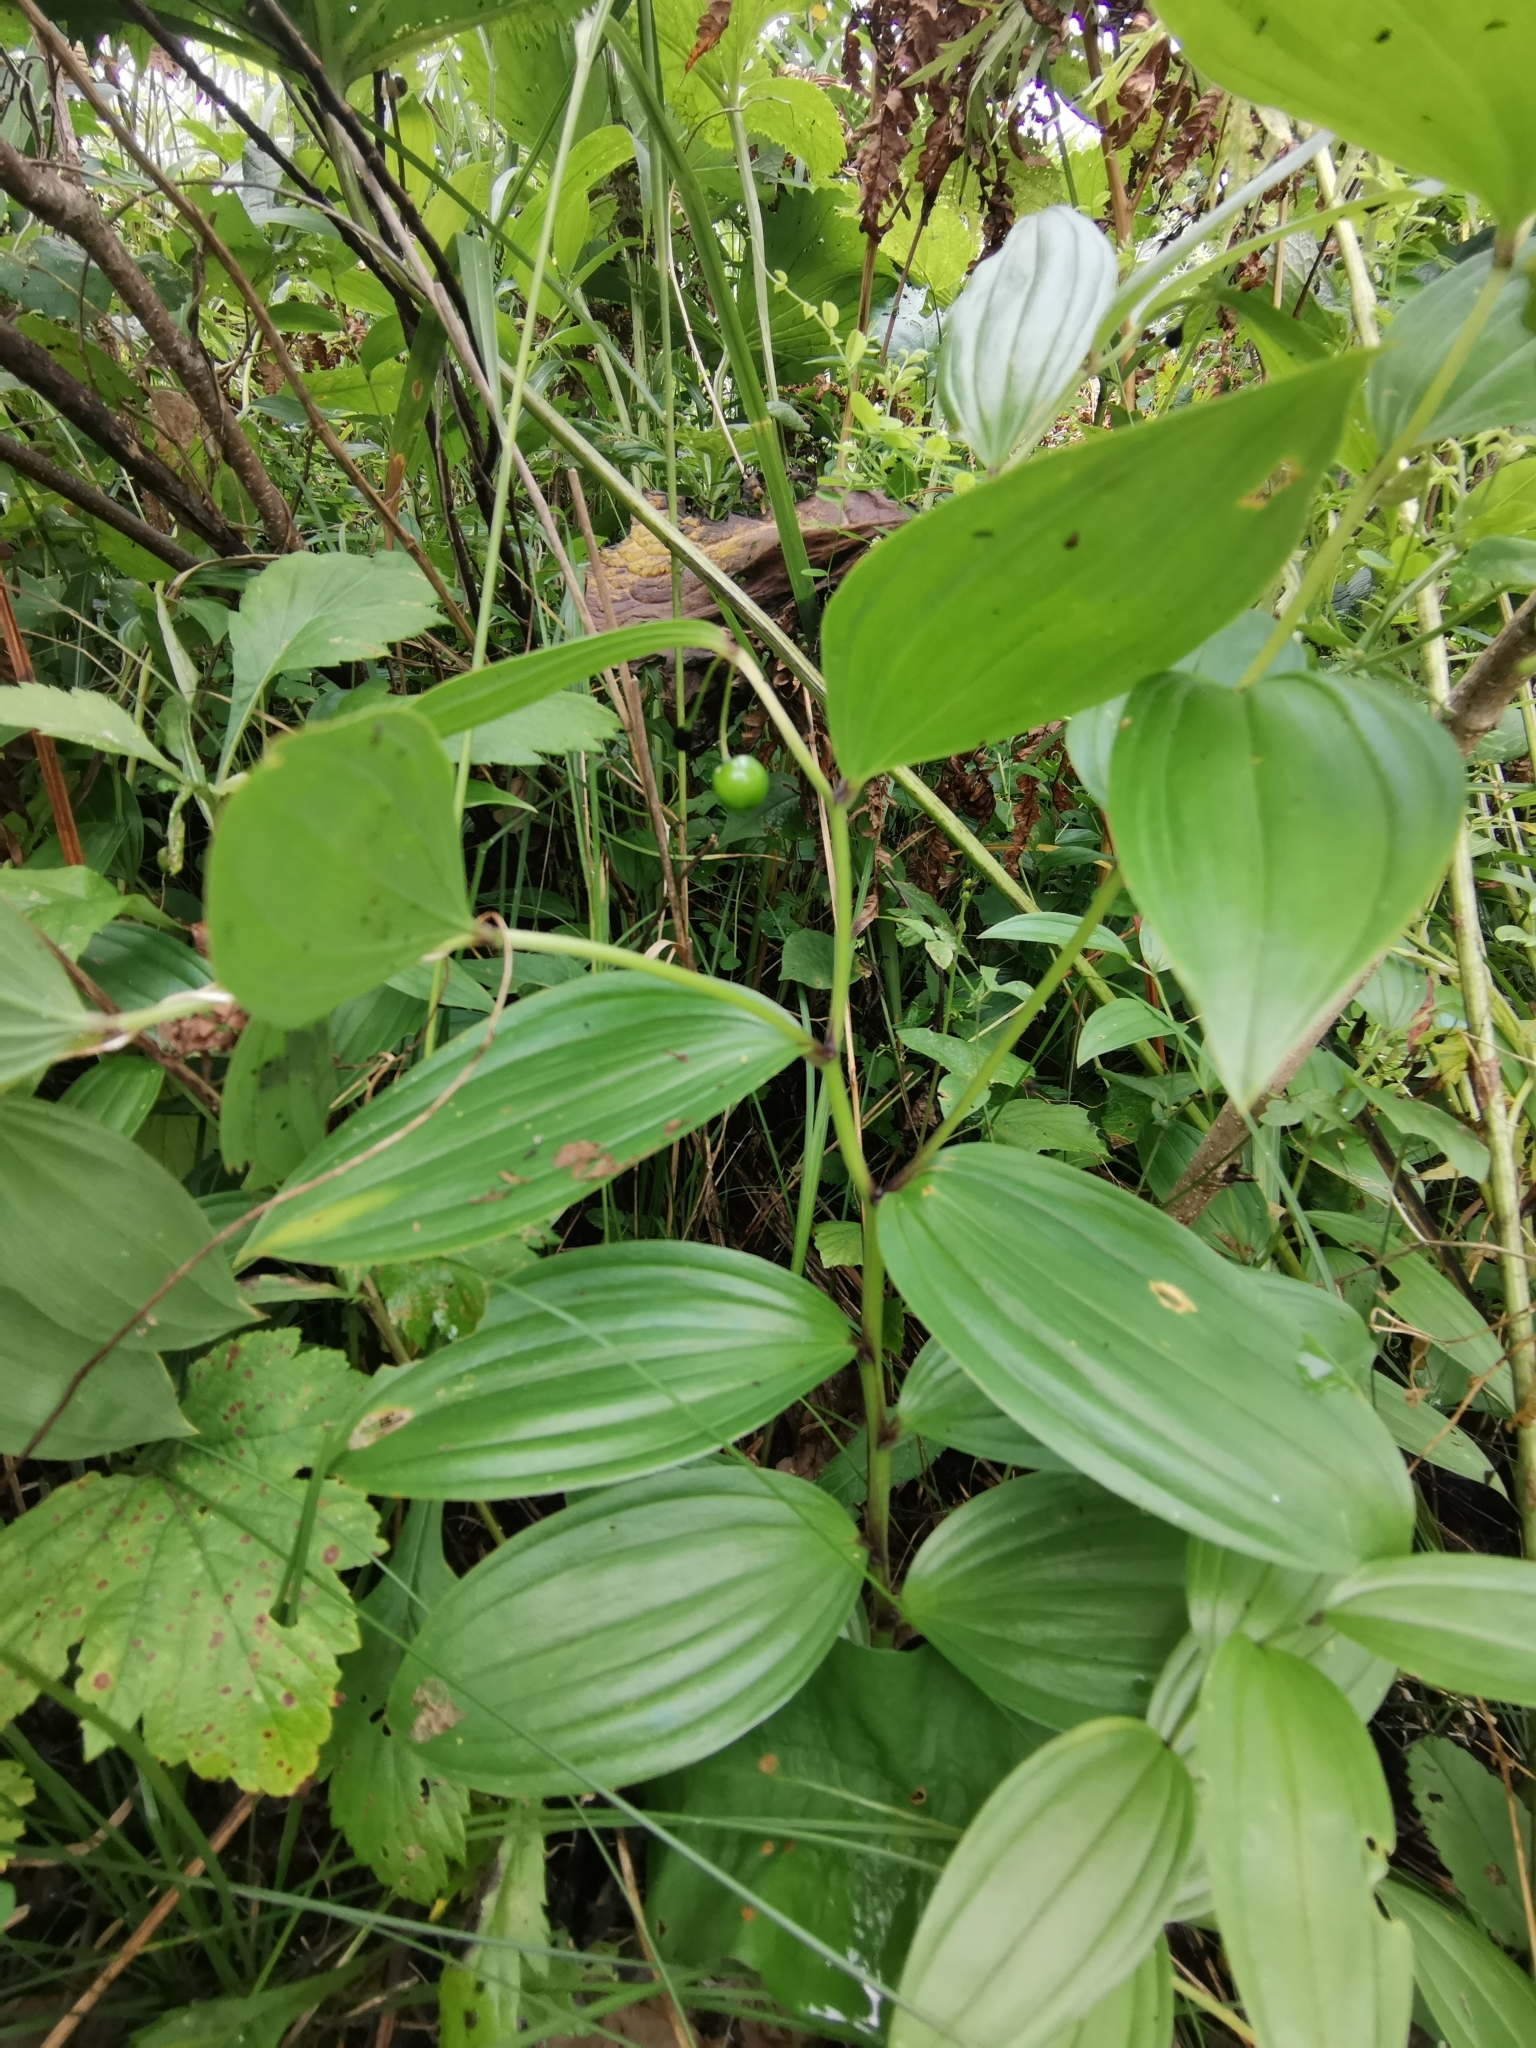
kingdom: Plantae
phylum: Tracheophyta
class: Liliopsida
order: Liliales
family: Colchicaceae
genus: Disporum
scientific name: Disporum viridescens
